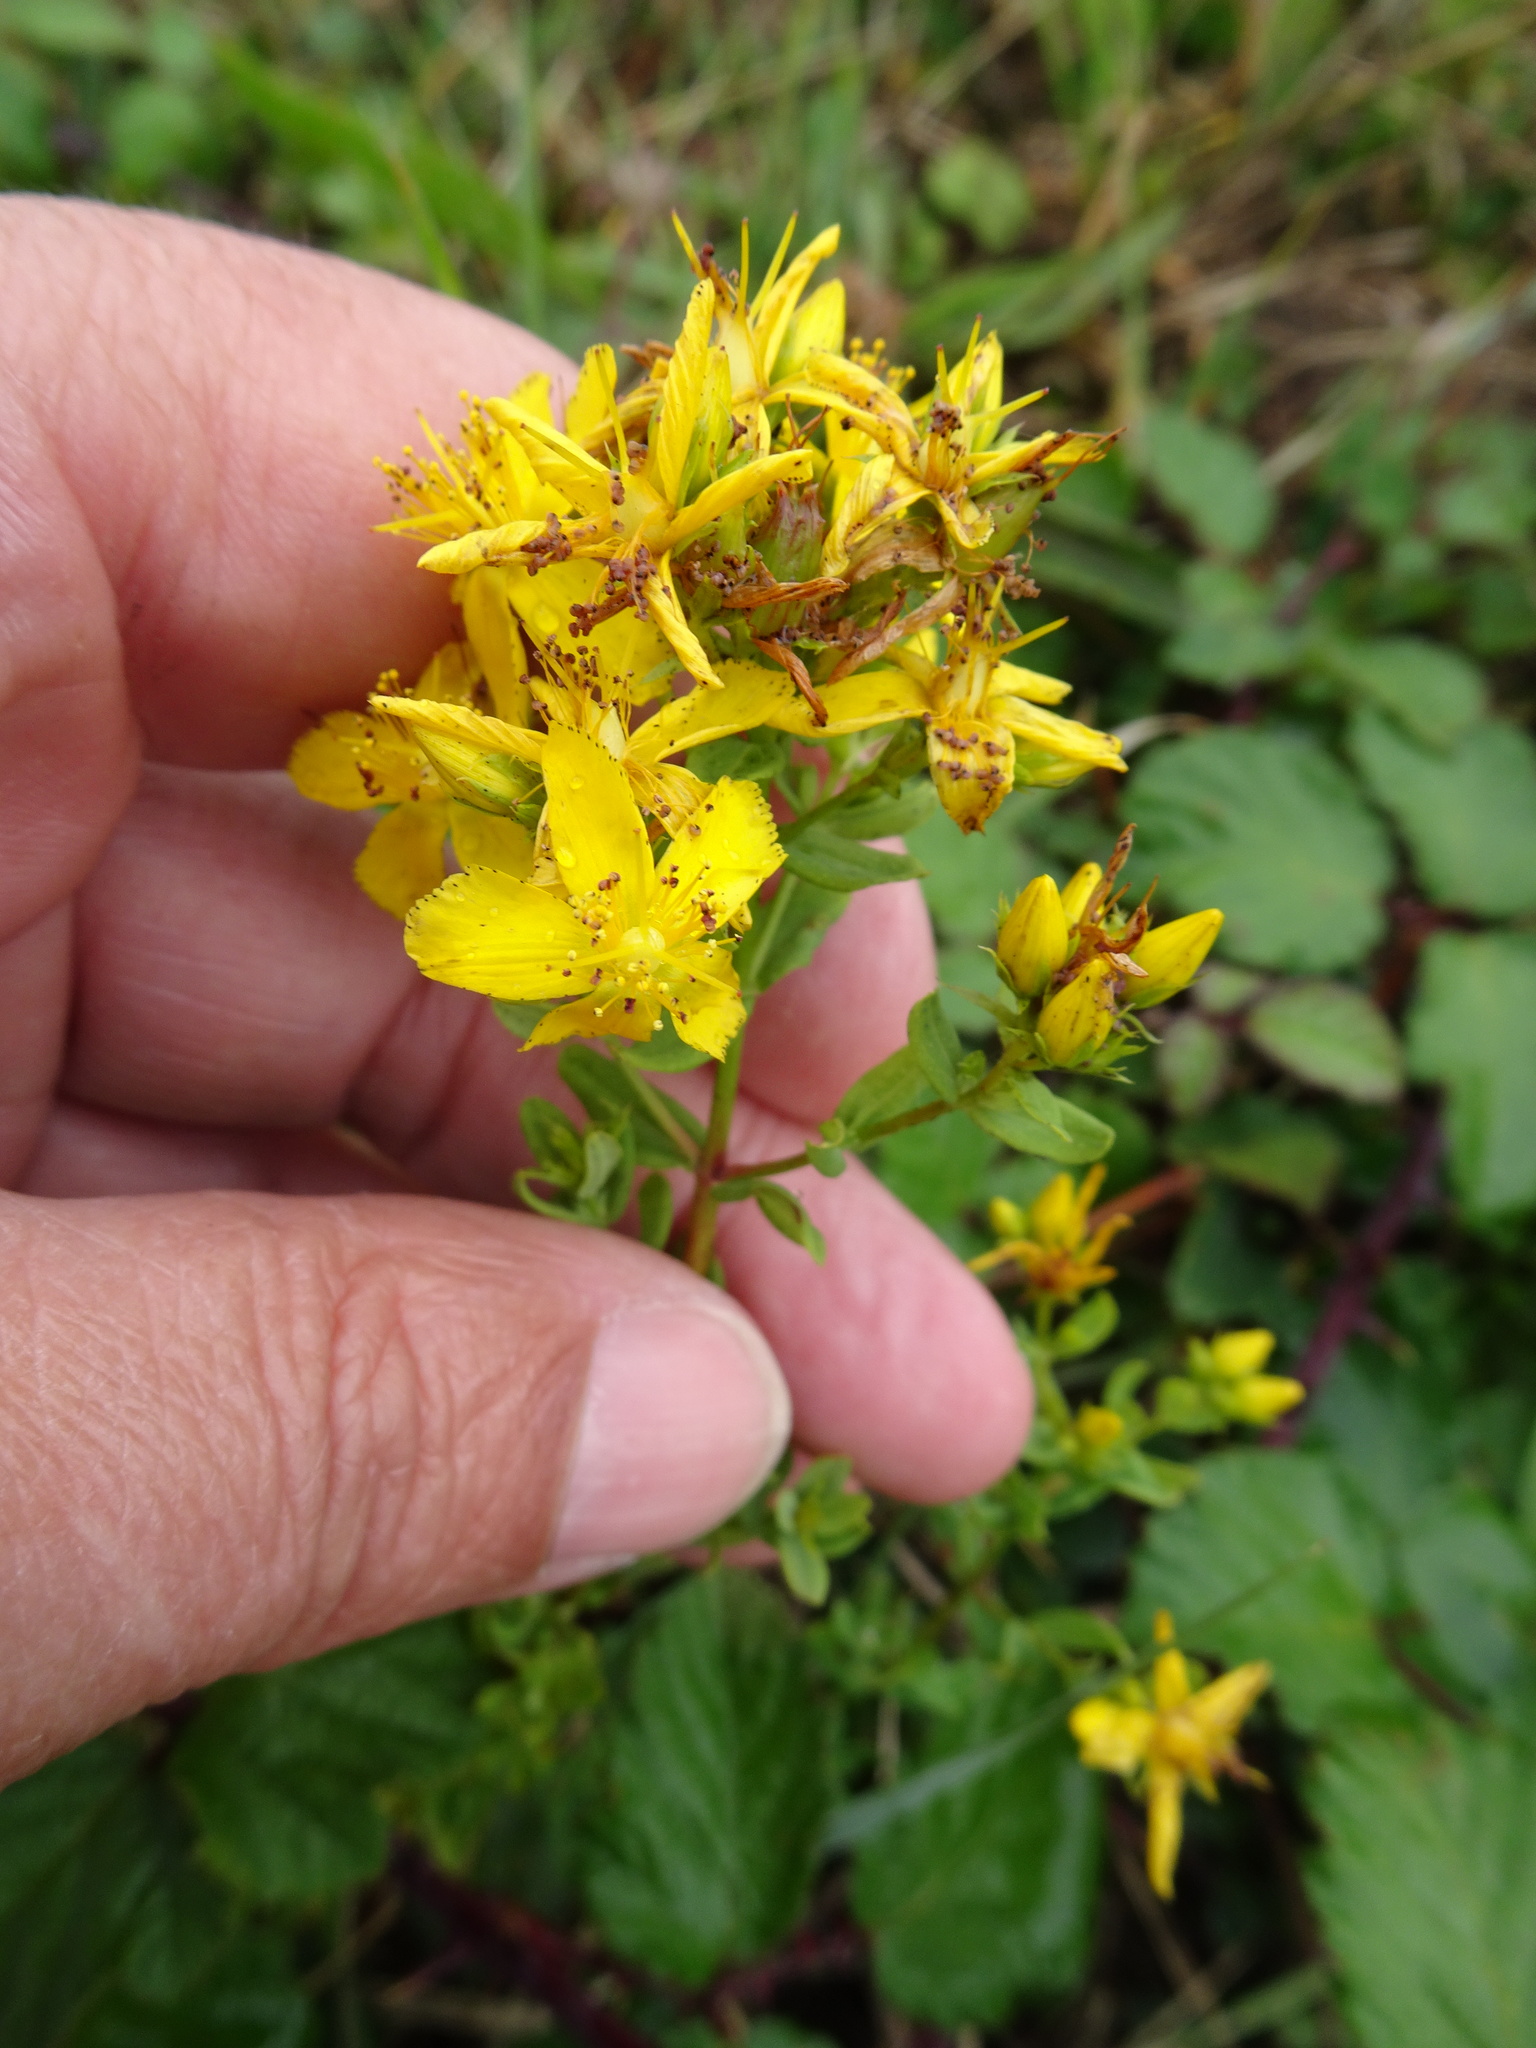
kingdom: Plantae
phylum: Tracheophyta
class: Magnoliopsida
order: Malpighiales
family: Hypericaceae
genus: Hypericum
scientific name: Hypericum perforatum
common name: Common st. johnswort
